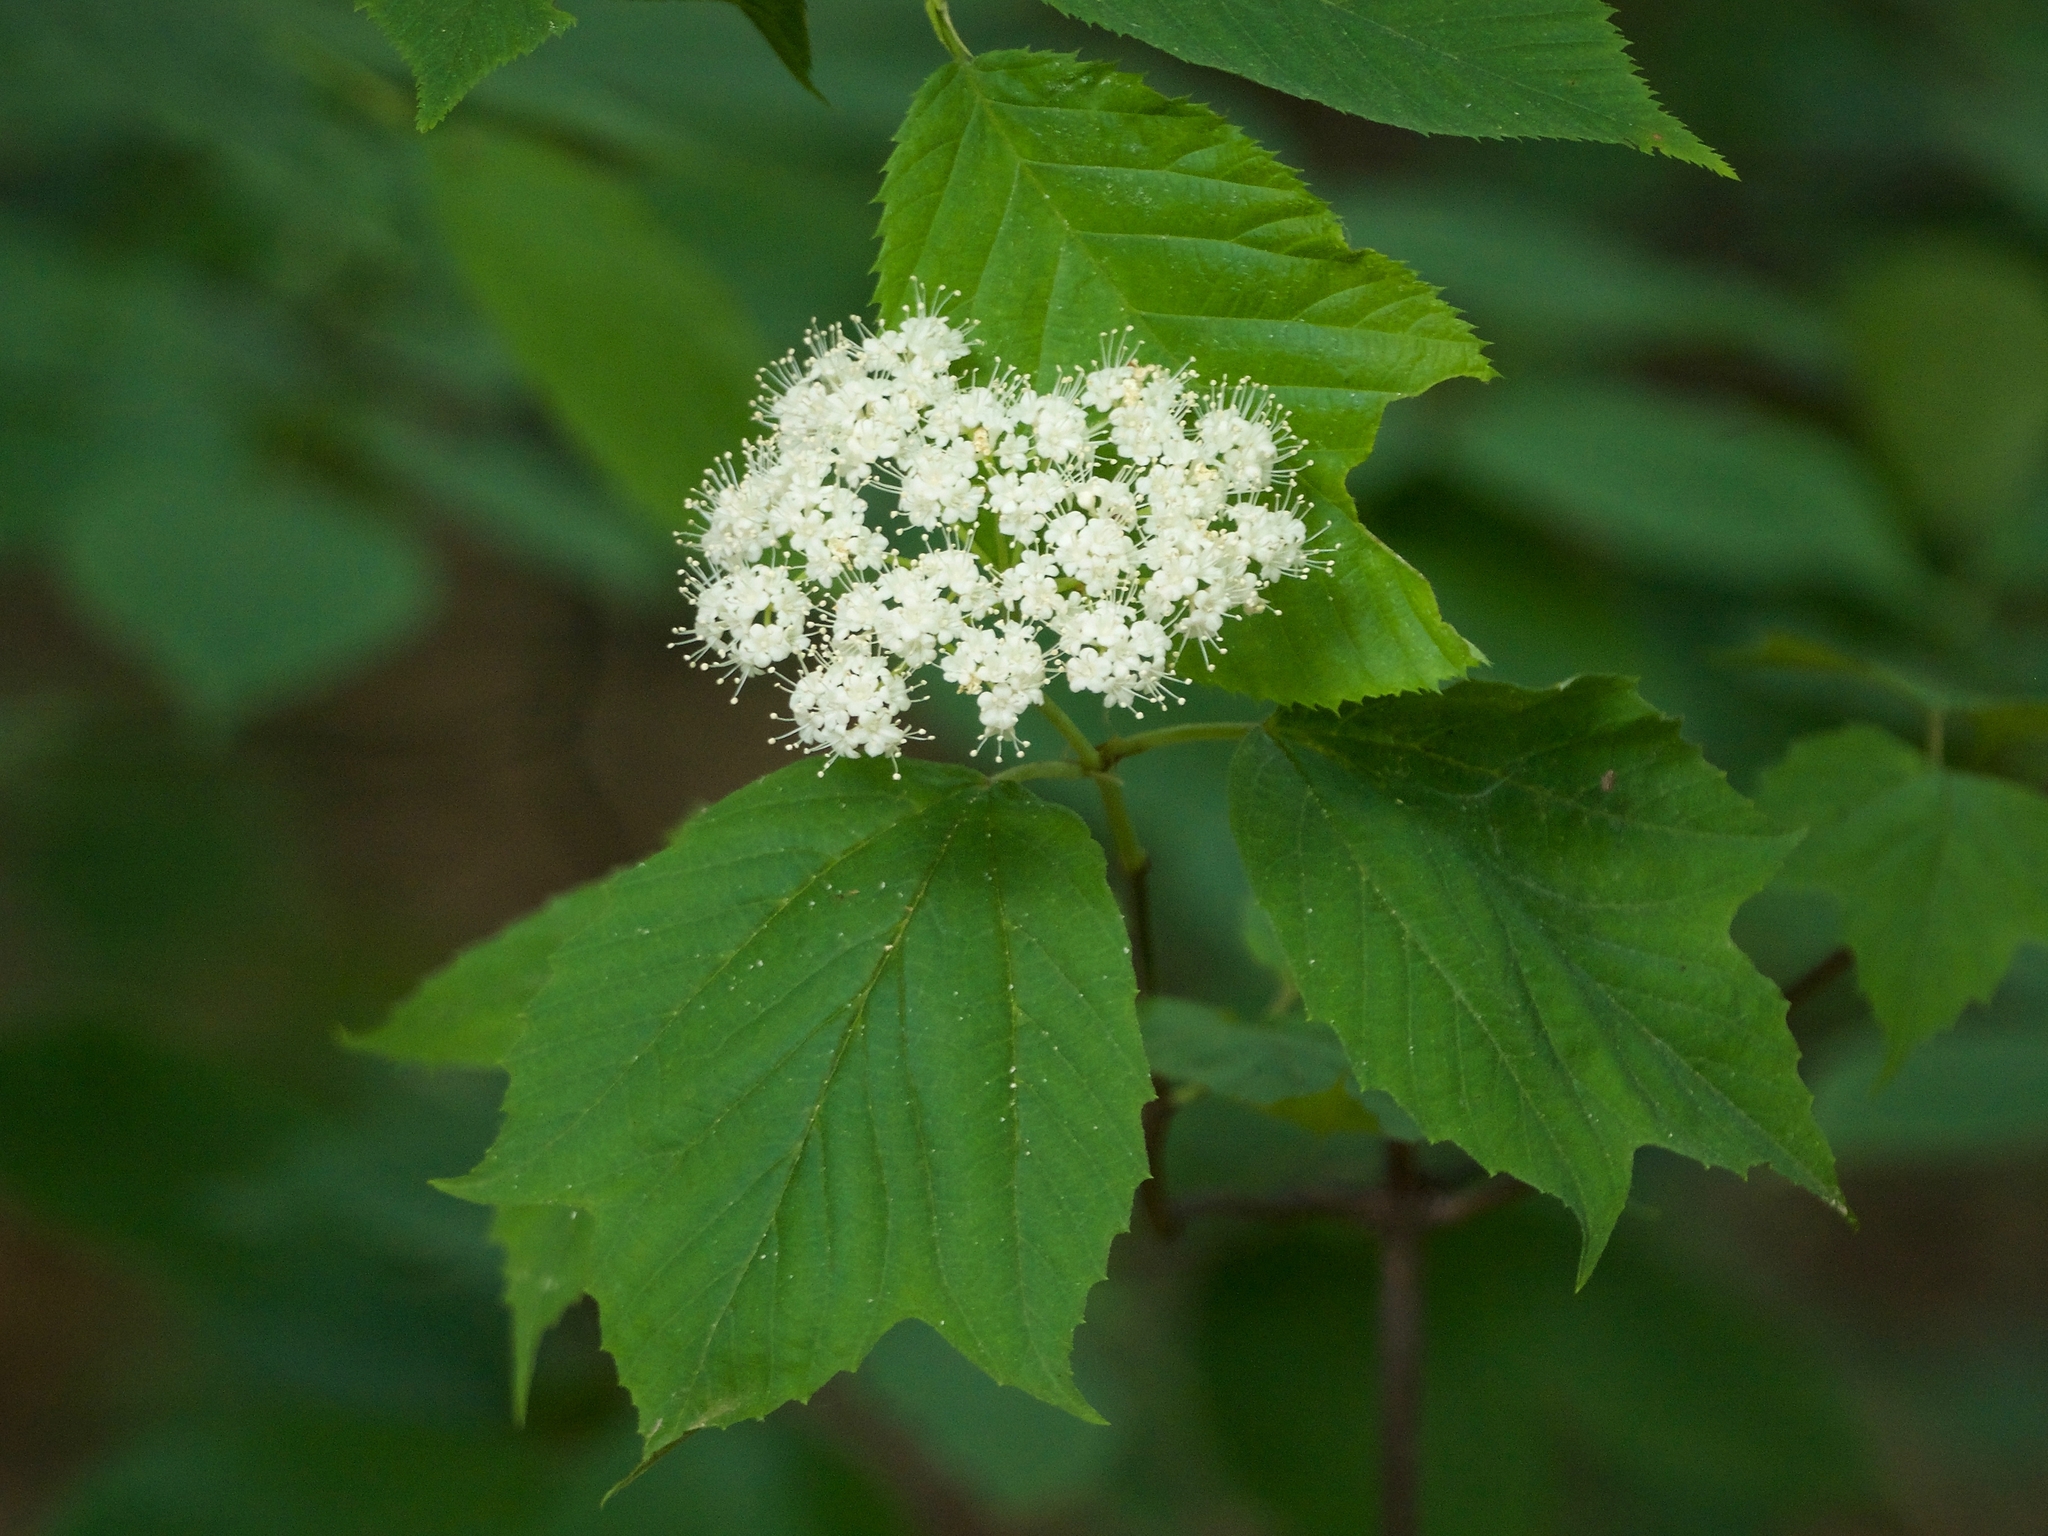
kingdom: Plantae
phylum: Tracheophyta
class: Magnoliopsida
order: Dipsacales
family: Viburnaceae
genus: Viburnum
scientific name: Viburnum acerifolium
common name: Dockmackie
